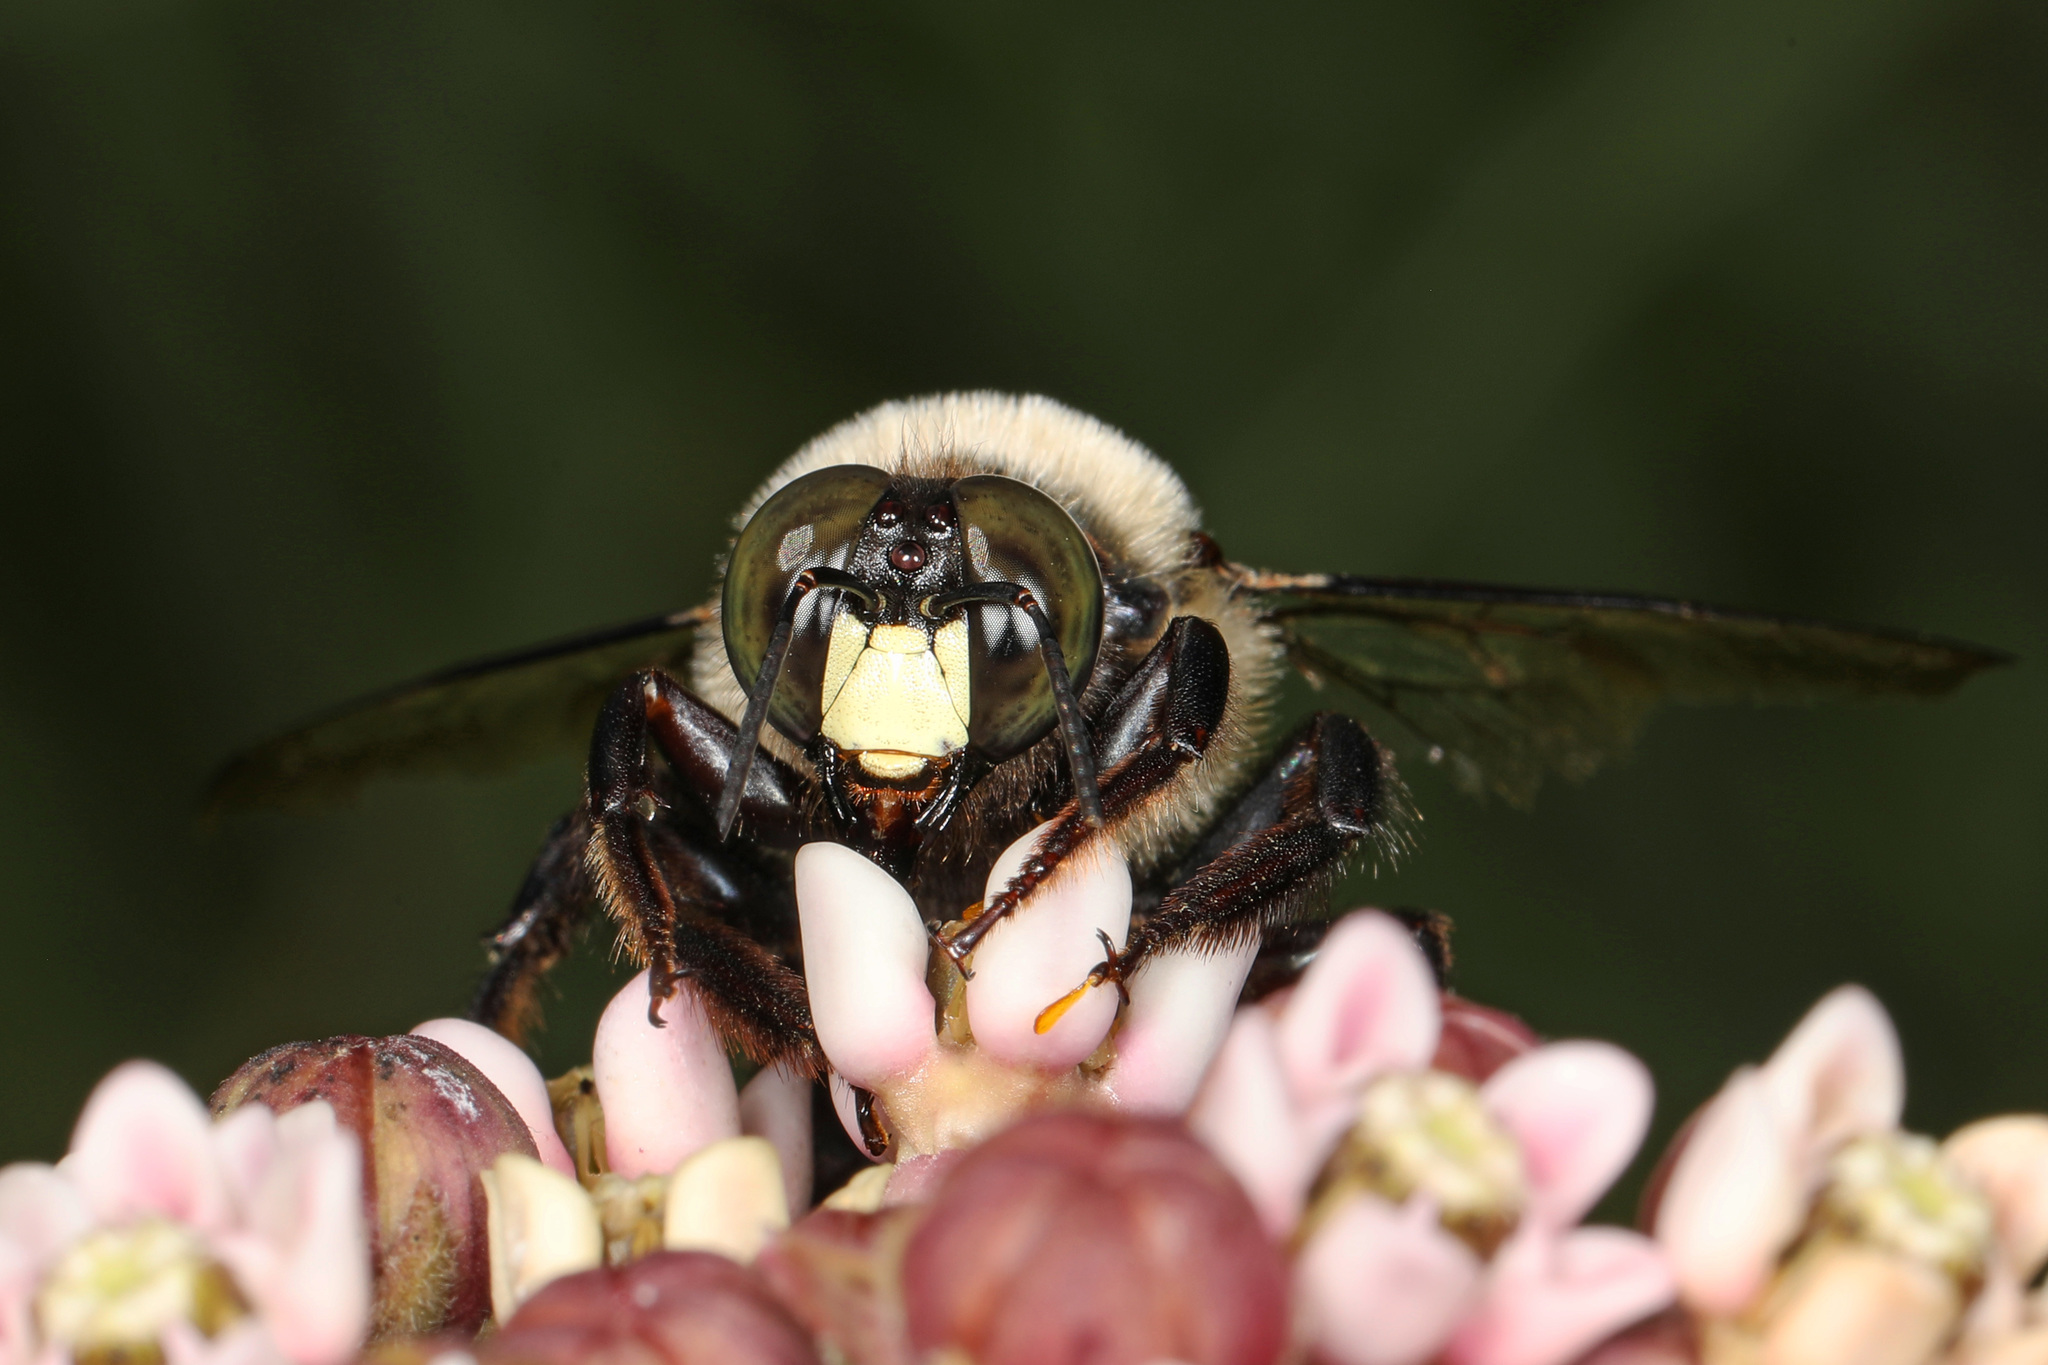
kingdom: Animalia
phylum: Arthropoda
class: Insecta
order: Hymenoptera
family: Apidae
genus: Xylocopa
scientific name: Xylocopa virginica
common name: Carpenter bee
